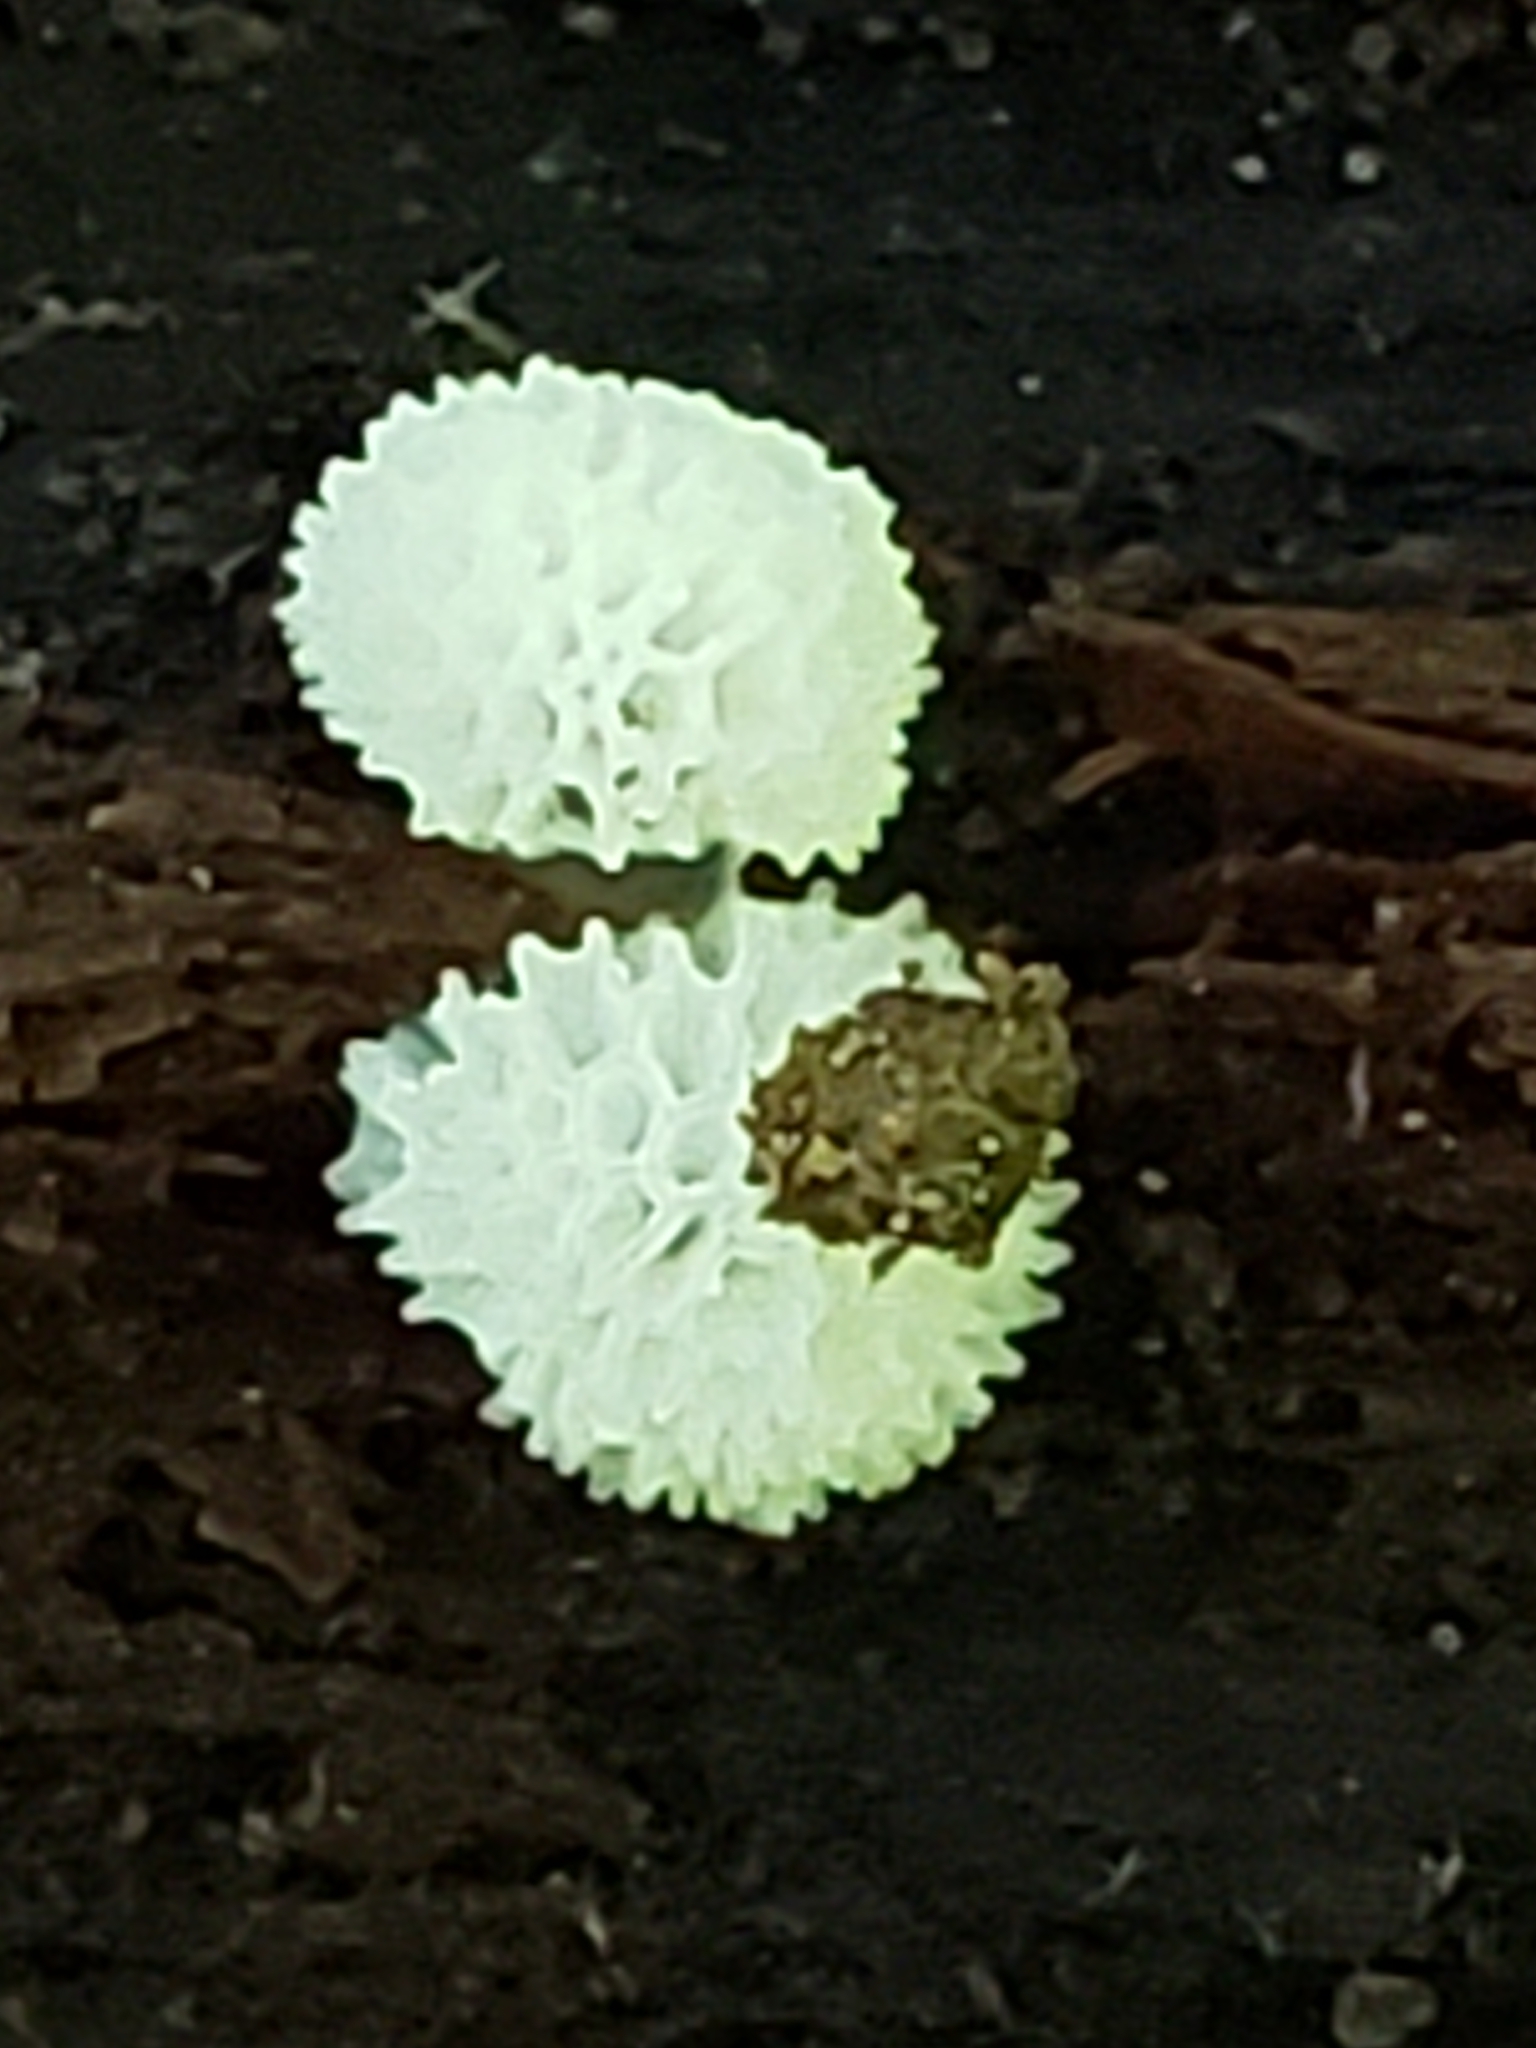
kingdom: Protozoa
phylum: Mycetozoa
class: Protosteliomycetes
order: Ceratiomyxales
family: Ceratiomyxaceae
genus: Ceratiomyxa
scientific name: Ceratiomyxa fruticulosa
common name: Honeycomb coral slime mold
